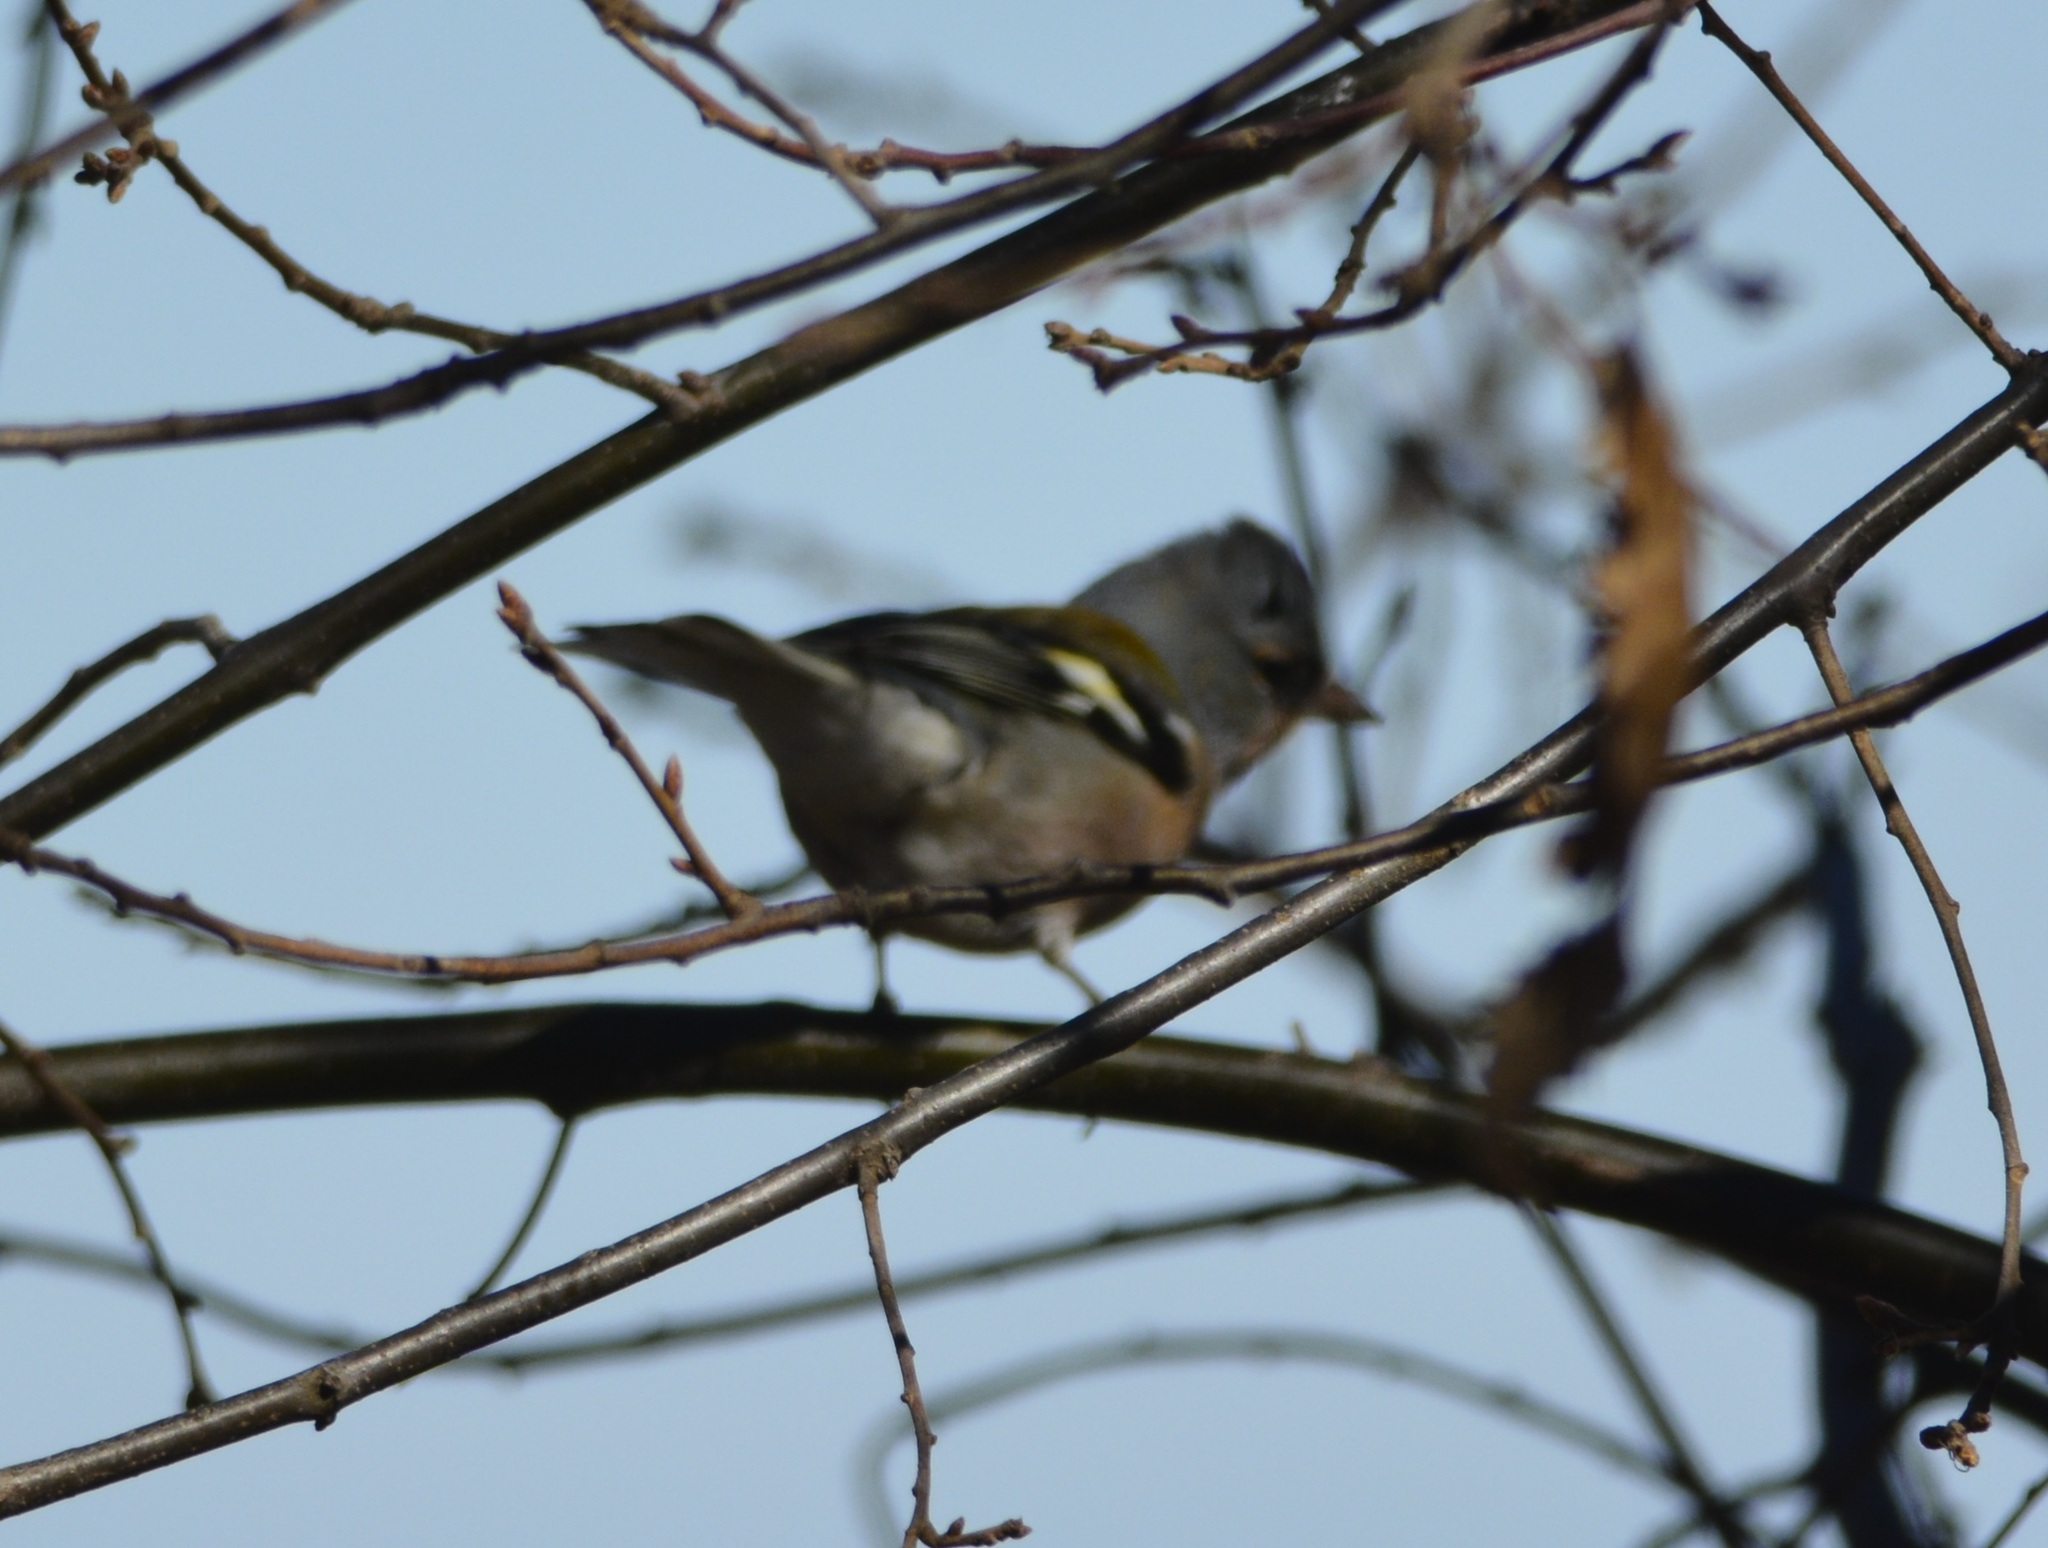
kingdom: Animalia
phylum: Chordata
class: Aves
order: Passeriformes
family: Fringillidae
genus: Fringilla
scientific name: Fringilla spodiogenys
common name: African chaffinch
